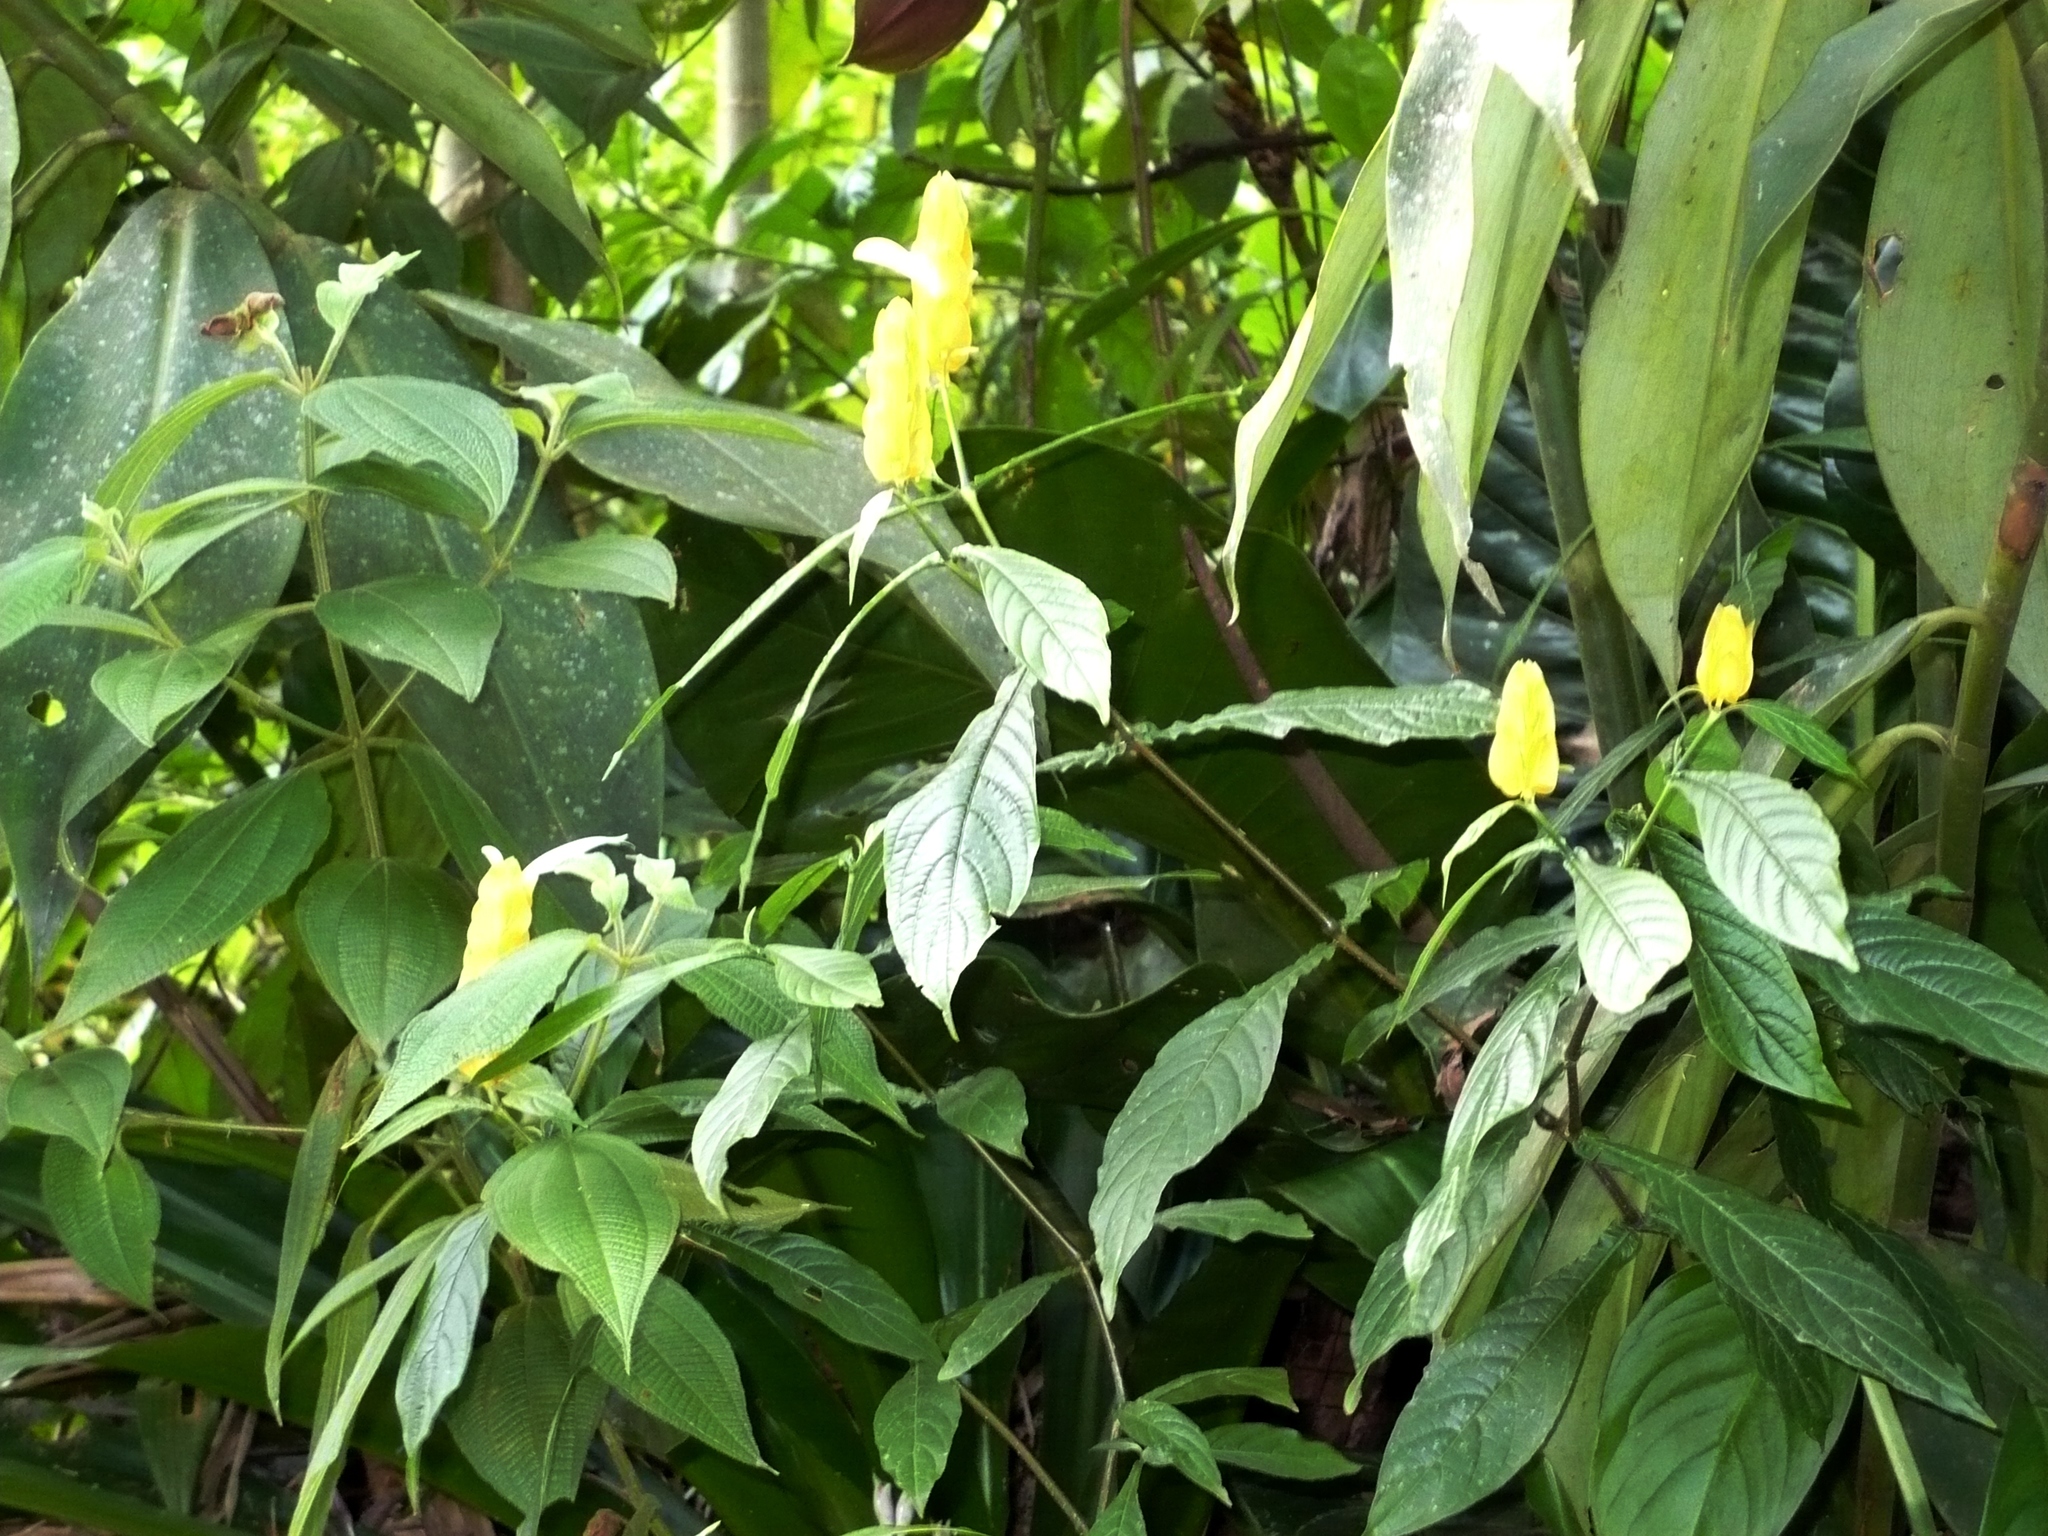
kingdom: Plantae
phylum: Tracheophyta
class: Magnoliopsida
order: Lamiales
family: Acanthaceae
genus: Pachystachys
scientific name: Pachystachys lutea
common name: Golden shrimp-plant
